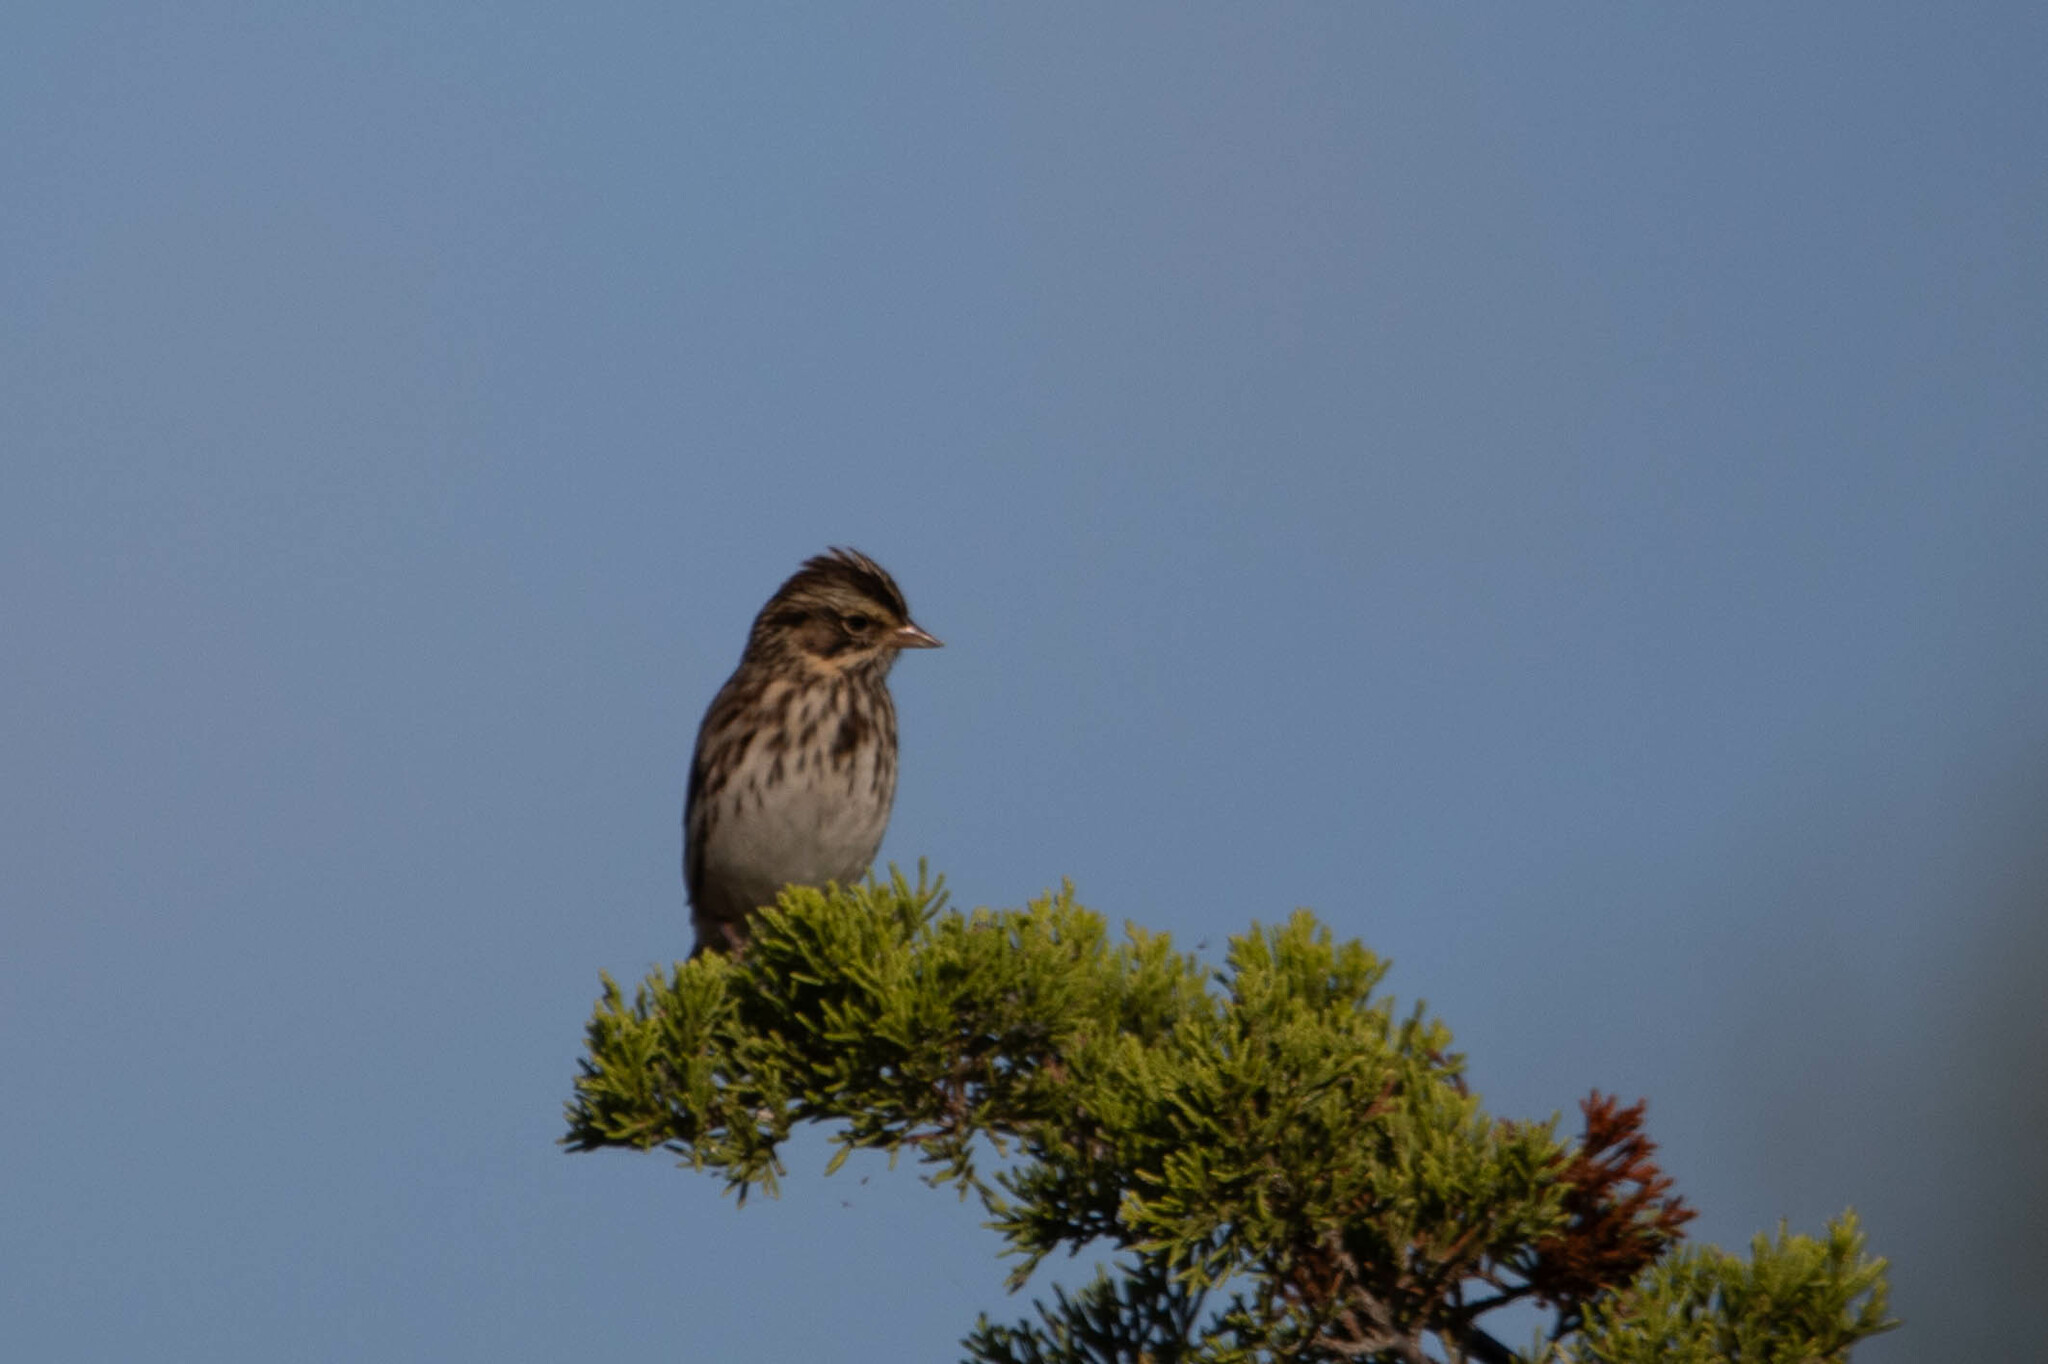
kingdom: Animalia
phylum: Chordata
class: Aves
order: Passeriformes
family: Passerellidae
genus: Passerculus
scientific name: Passerculus sandwichensis
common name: Savannah sparrow
